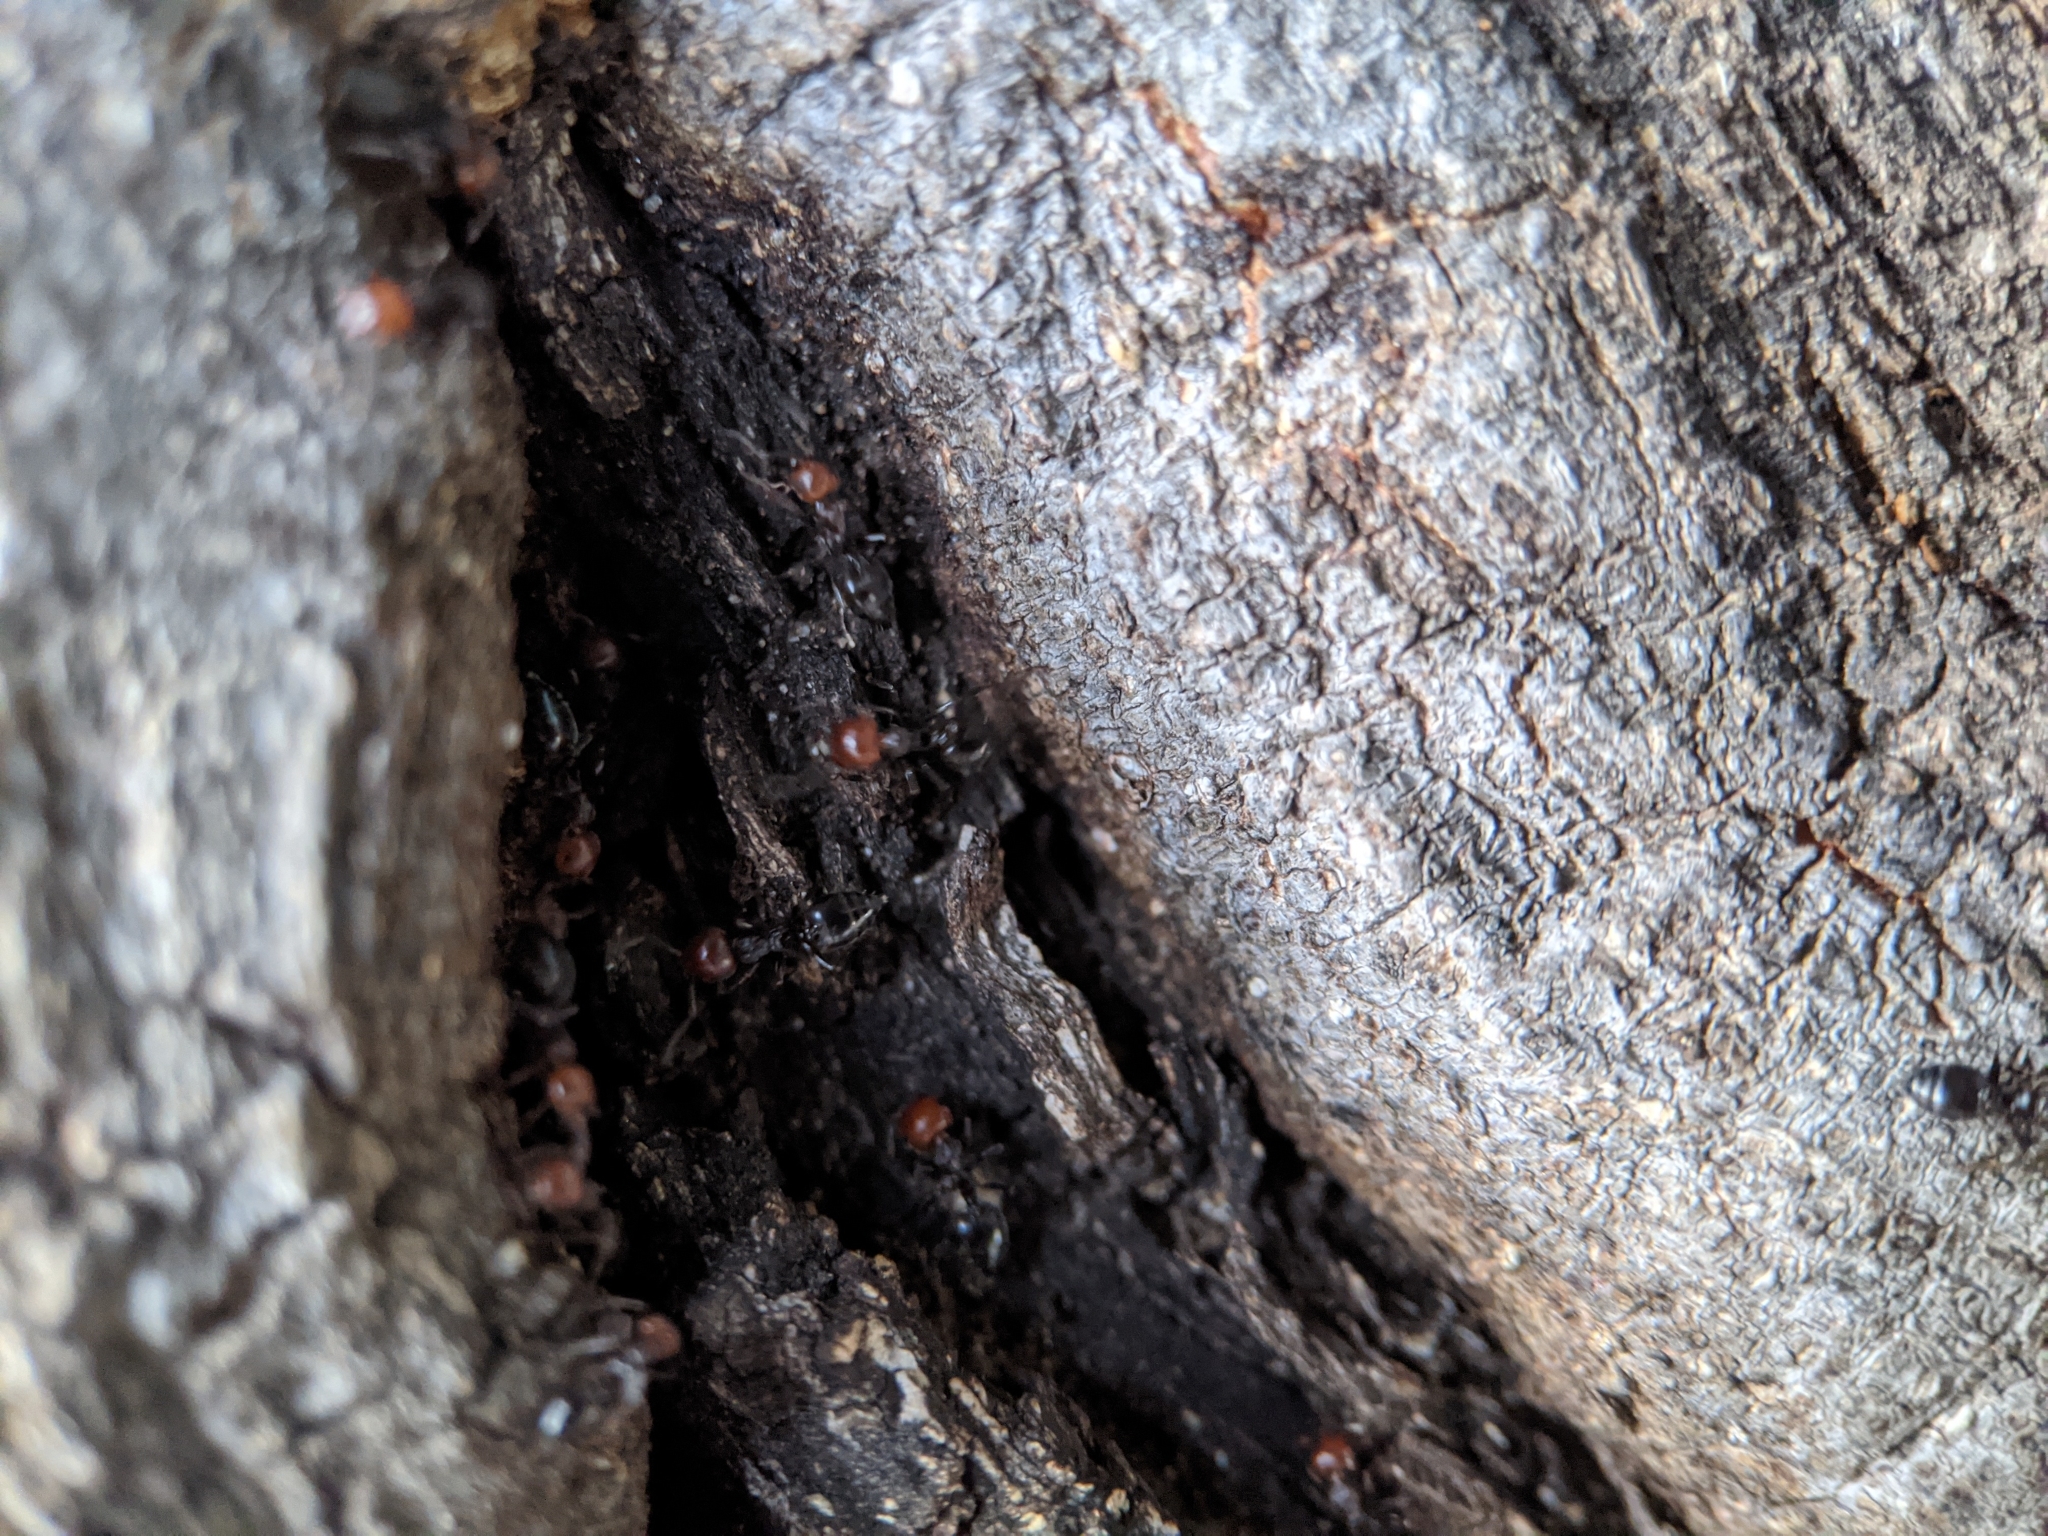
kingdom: Animalia
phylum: Arthropoda
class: Insecta
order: Hymenoptera
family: Formicidae
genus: Crematogaster
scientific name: Crematogaster scutellaris
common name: Fourmi du liège
